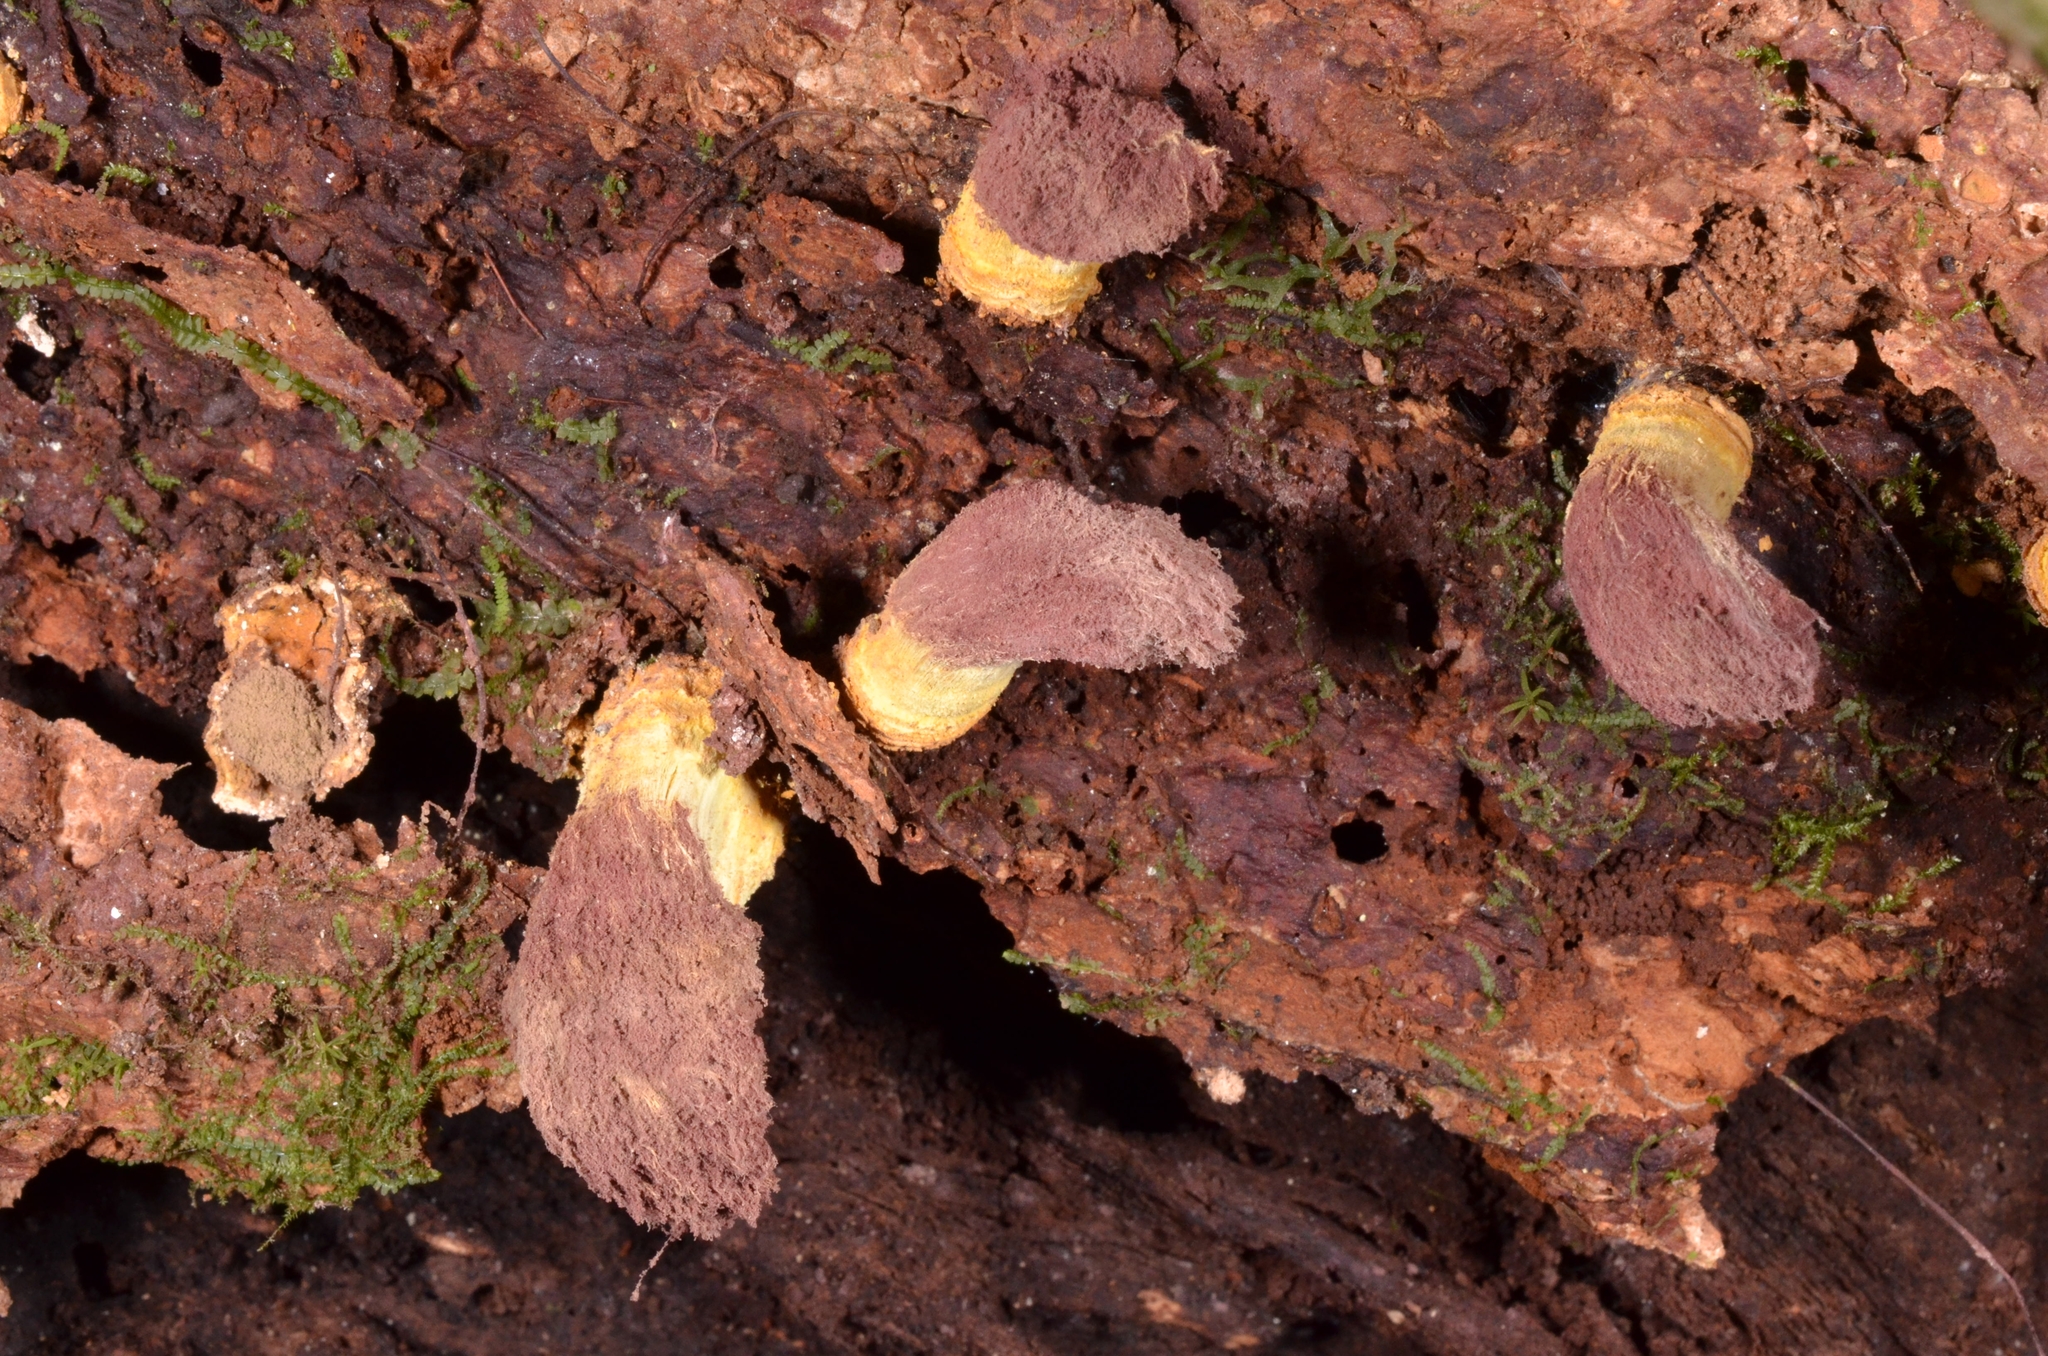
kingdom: Fungi
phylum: Ascomycota
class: Eurotiomycetes
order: Eurotiales
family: Trichocomaceae
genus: Trichocoma
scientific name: Trichocoma paradoxa
